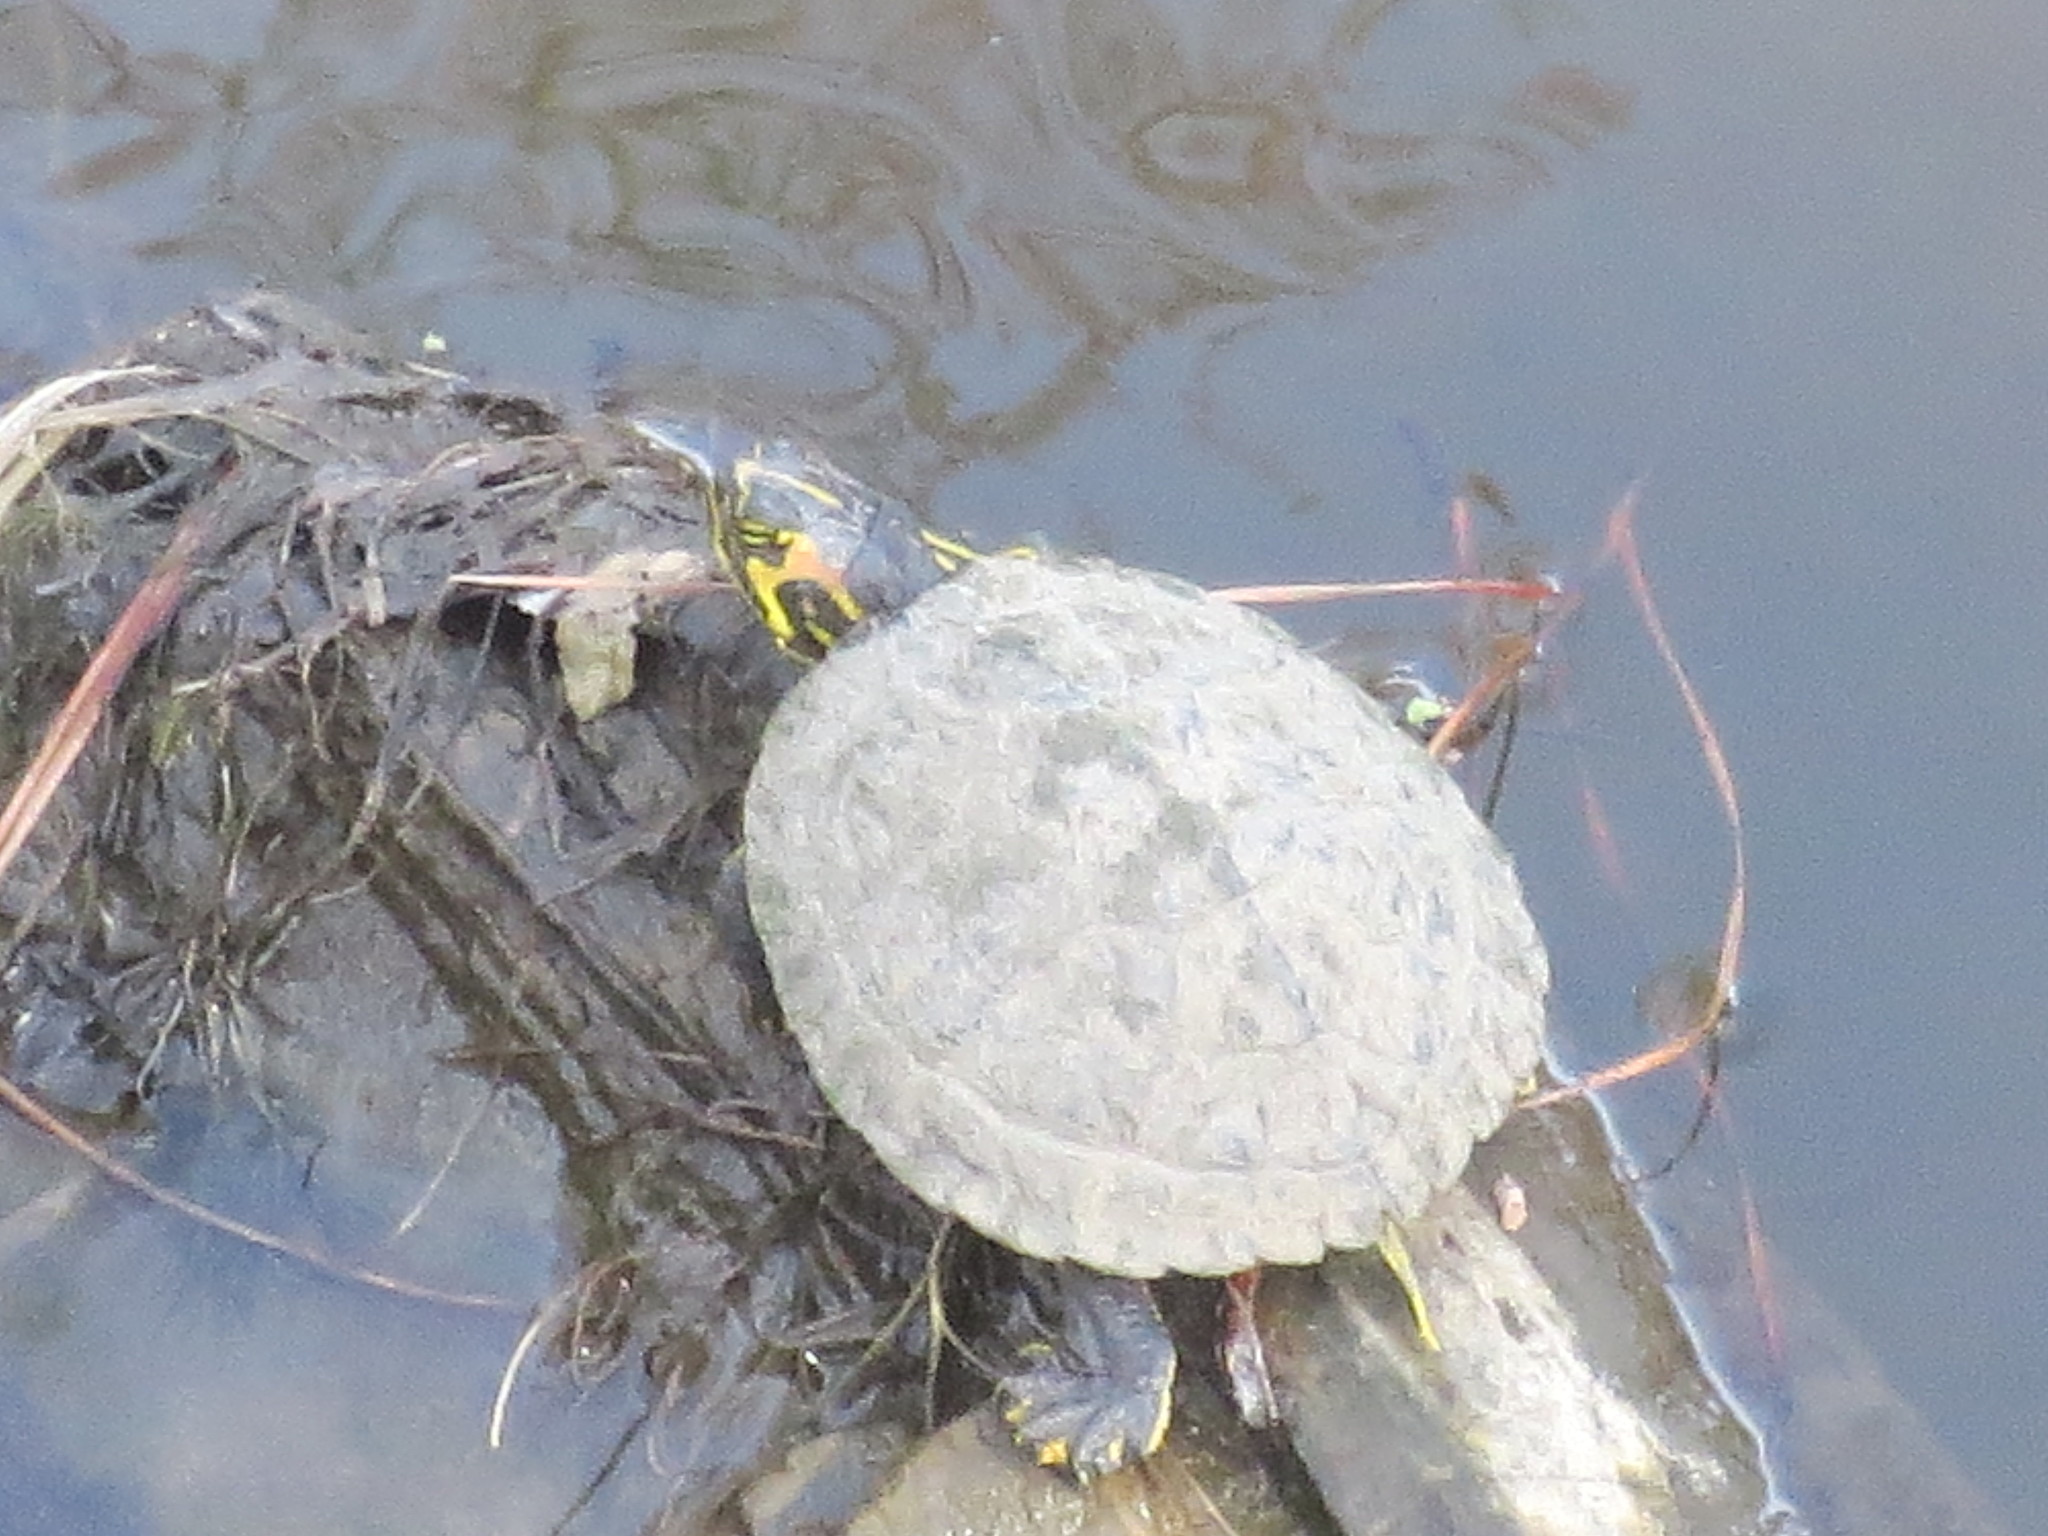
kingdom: Animalia
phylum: Chordata
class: Testudines
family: Emydidae
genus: Trachemys
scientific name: Trachemys scripta
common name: Slider
